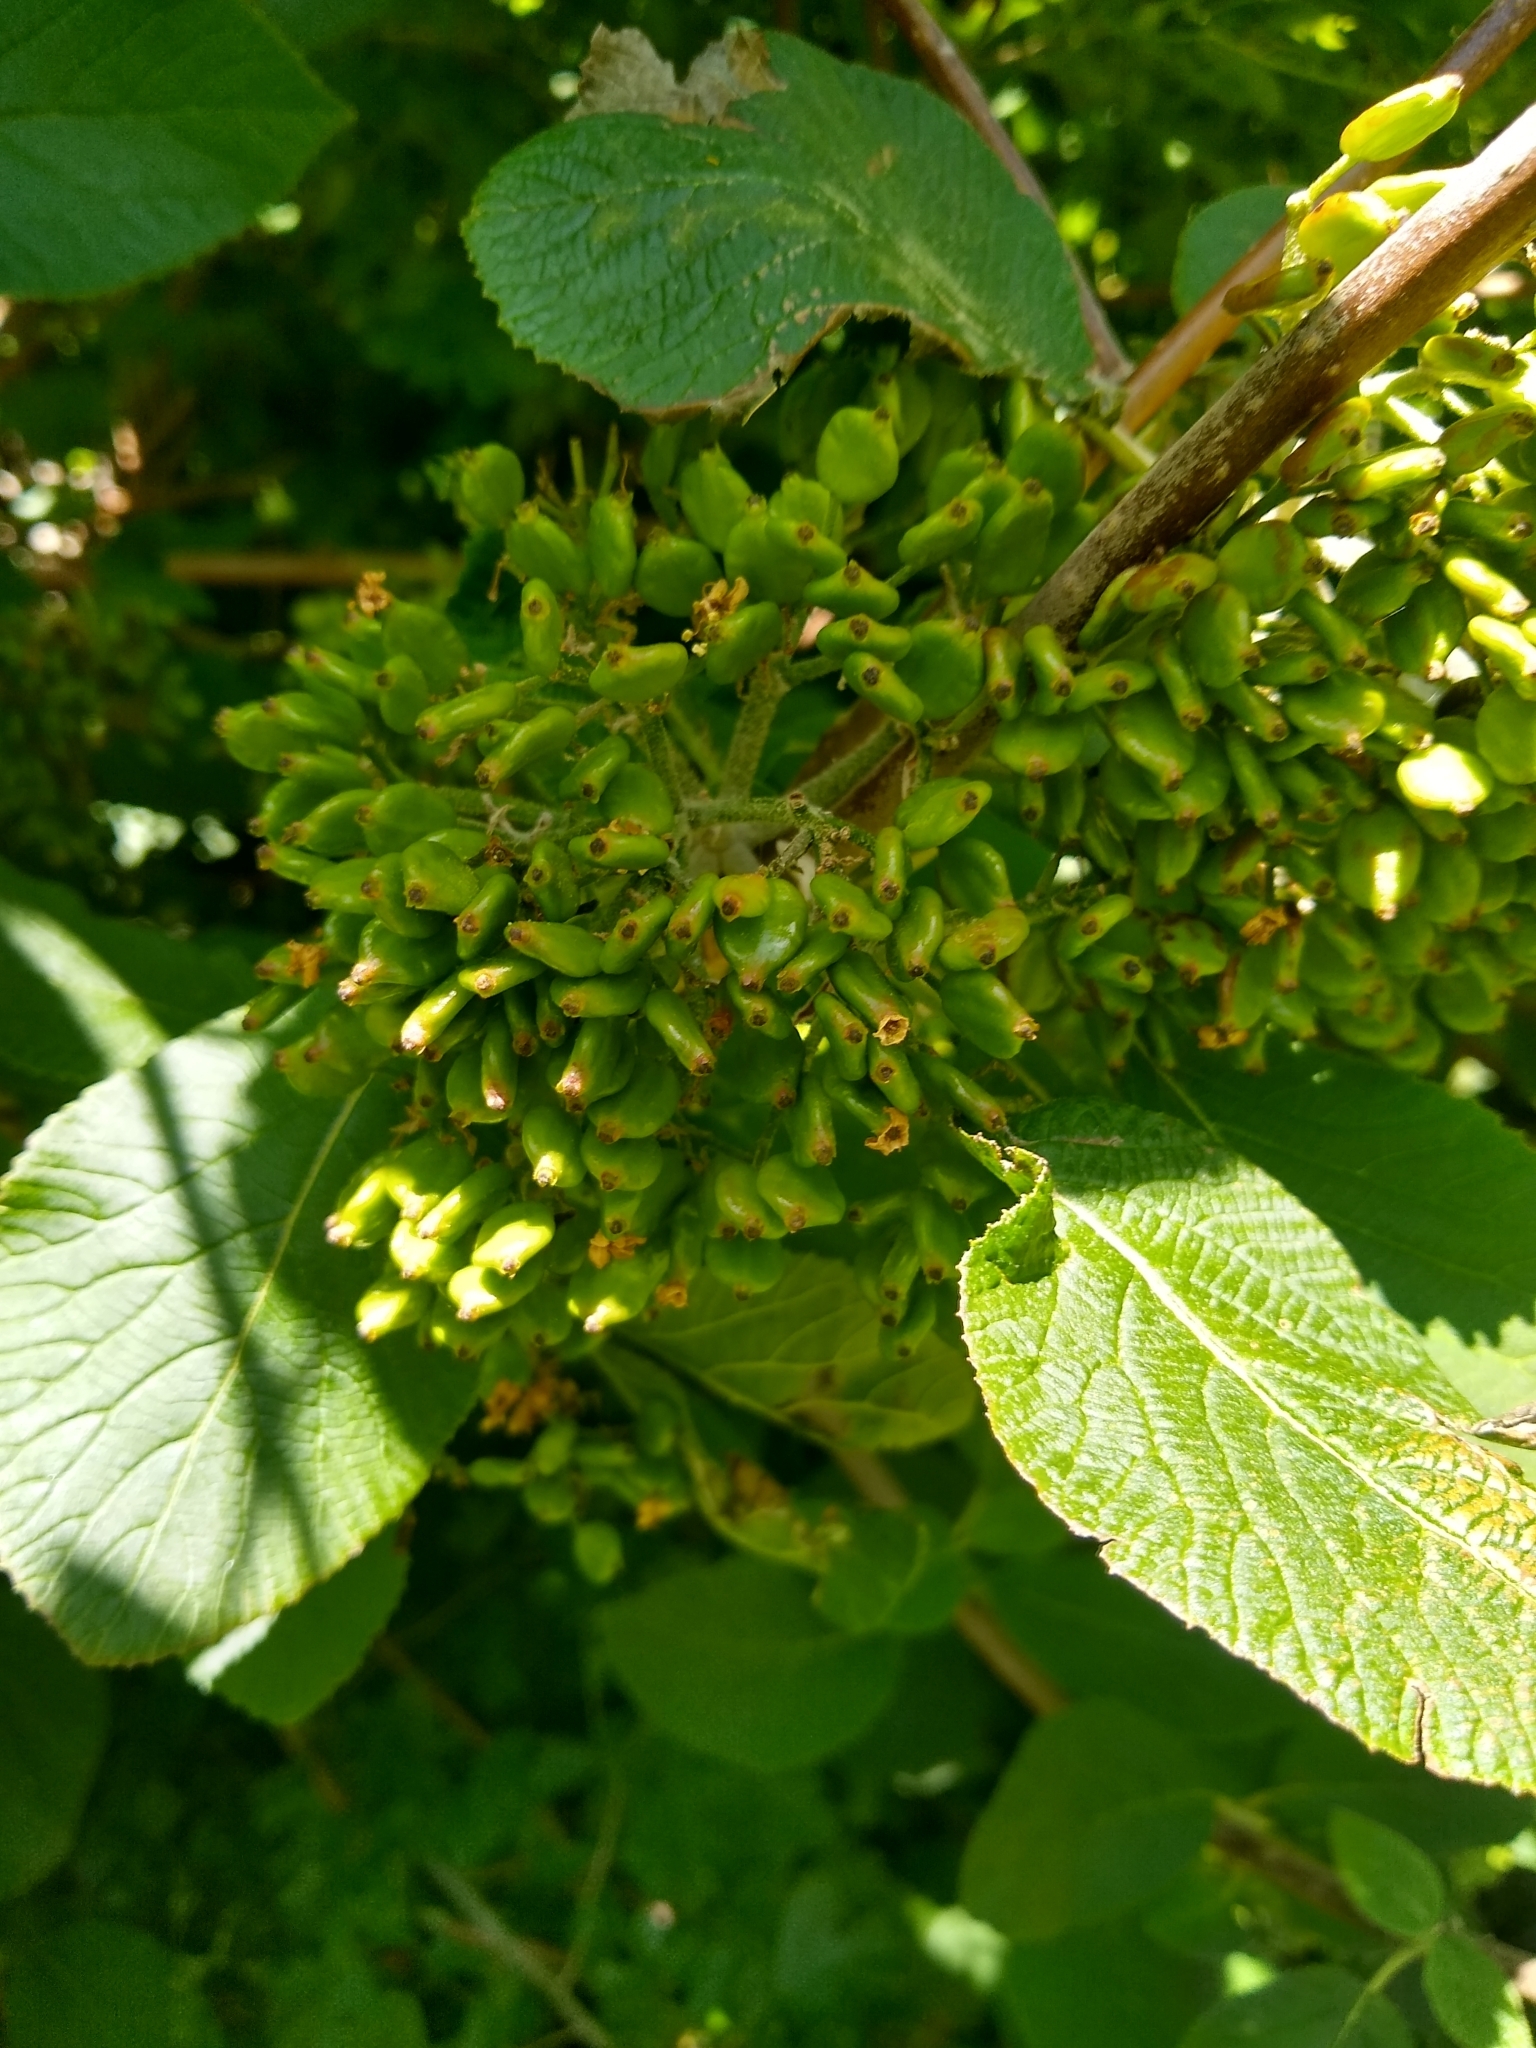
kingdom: Plantae
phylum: Tracheophyta
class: Magnoliopsida
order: Dipsacales
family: Viburnaceae
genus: Viburnum
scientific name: Viburnum lantana
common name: Wayfaring tree
